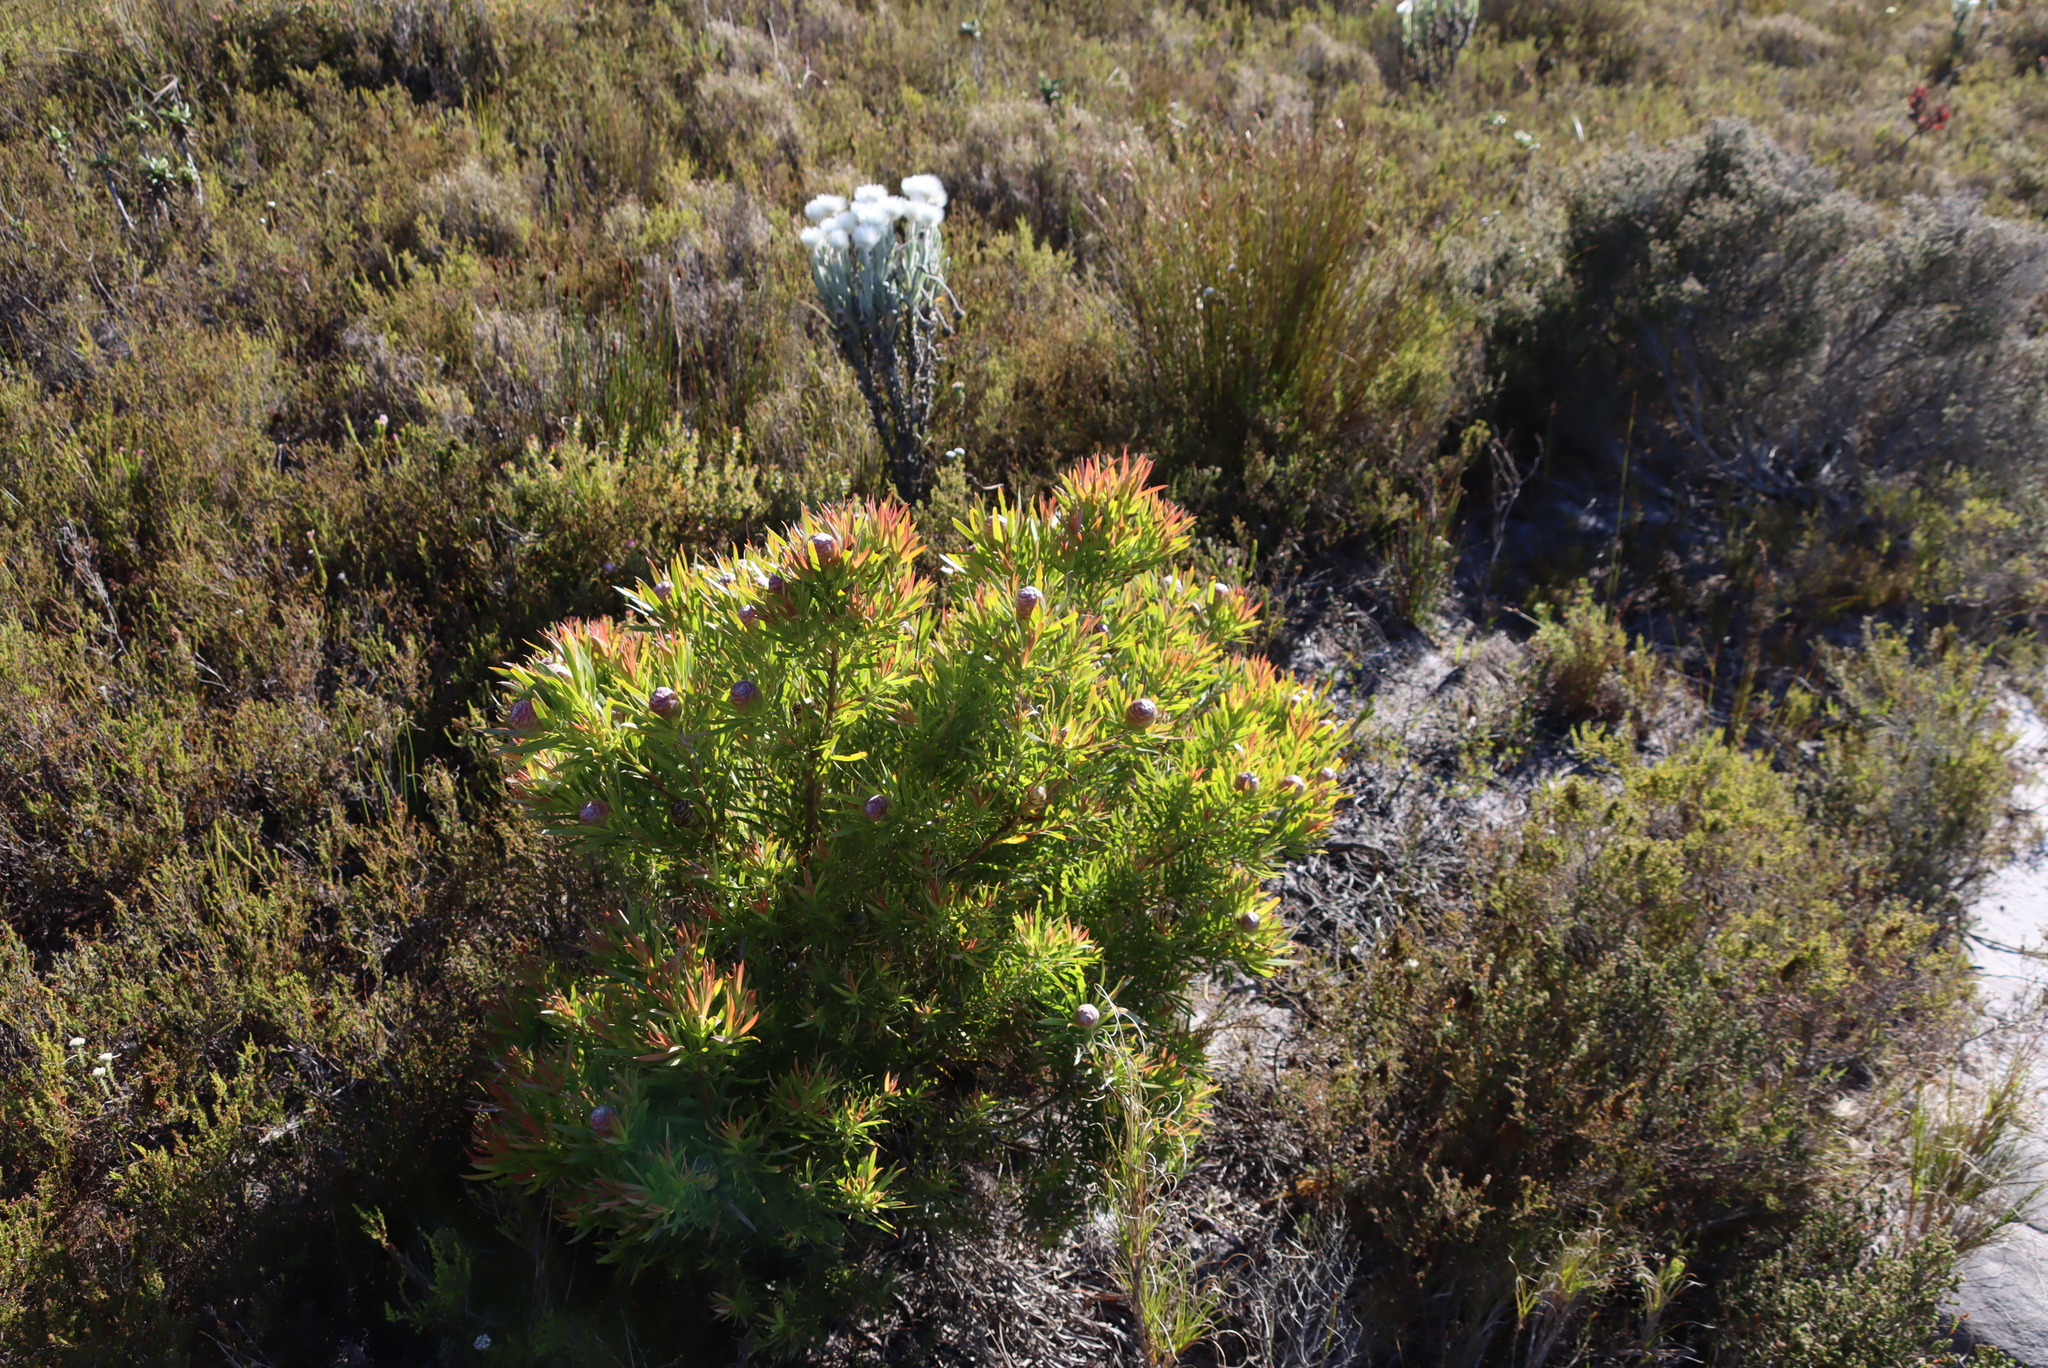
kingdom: Plantae
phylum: Tracheophyta
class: Magnoliopsida
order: Proteales
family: Proteaceae
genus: Leucadendron
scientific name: Leucadendron xanthoconus
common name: Sickle-leaf conebush
